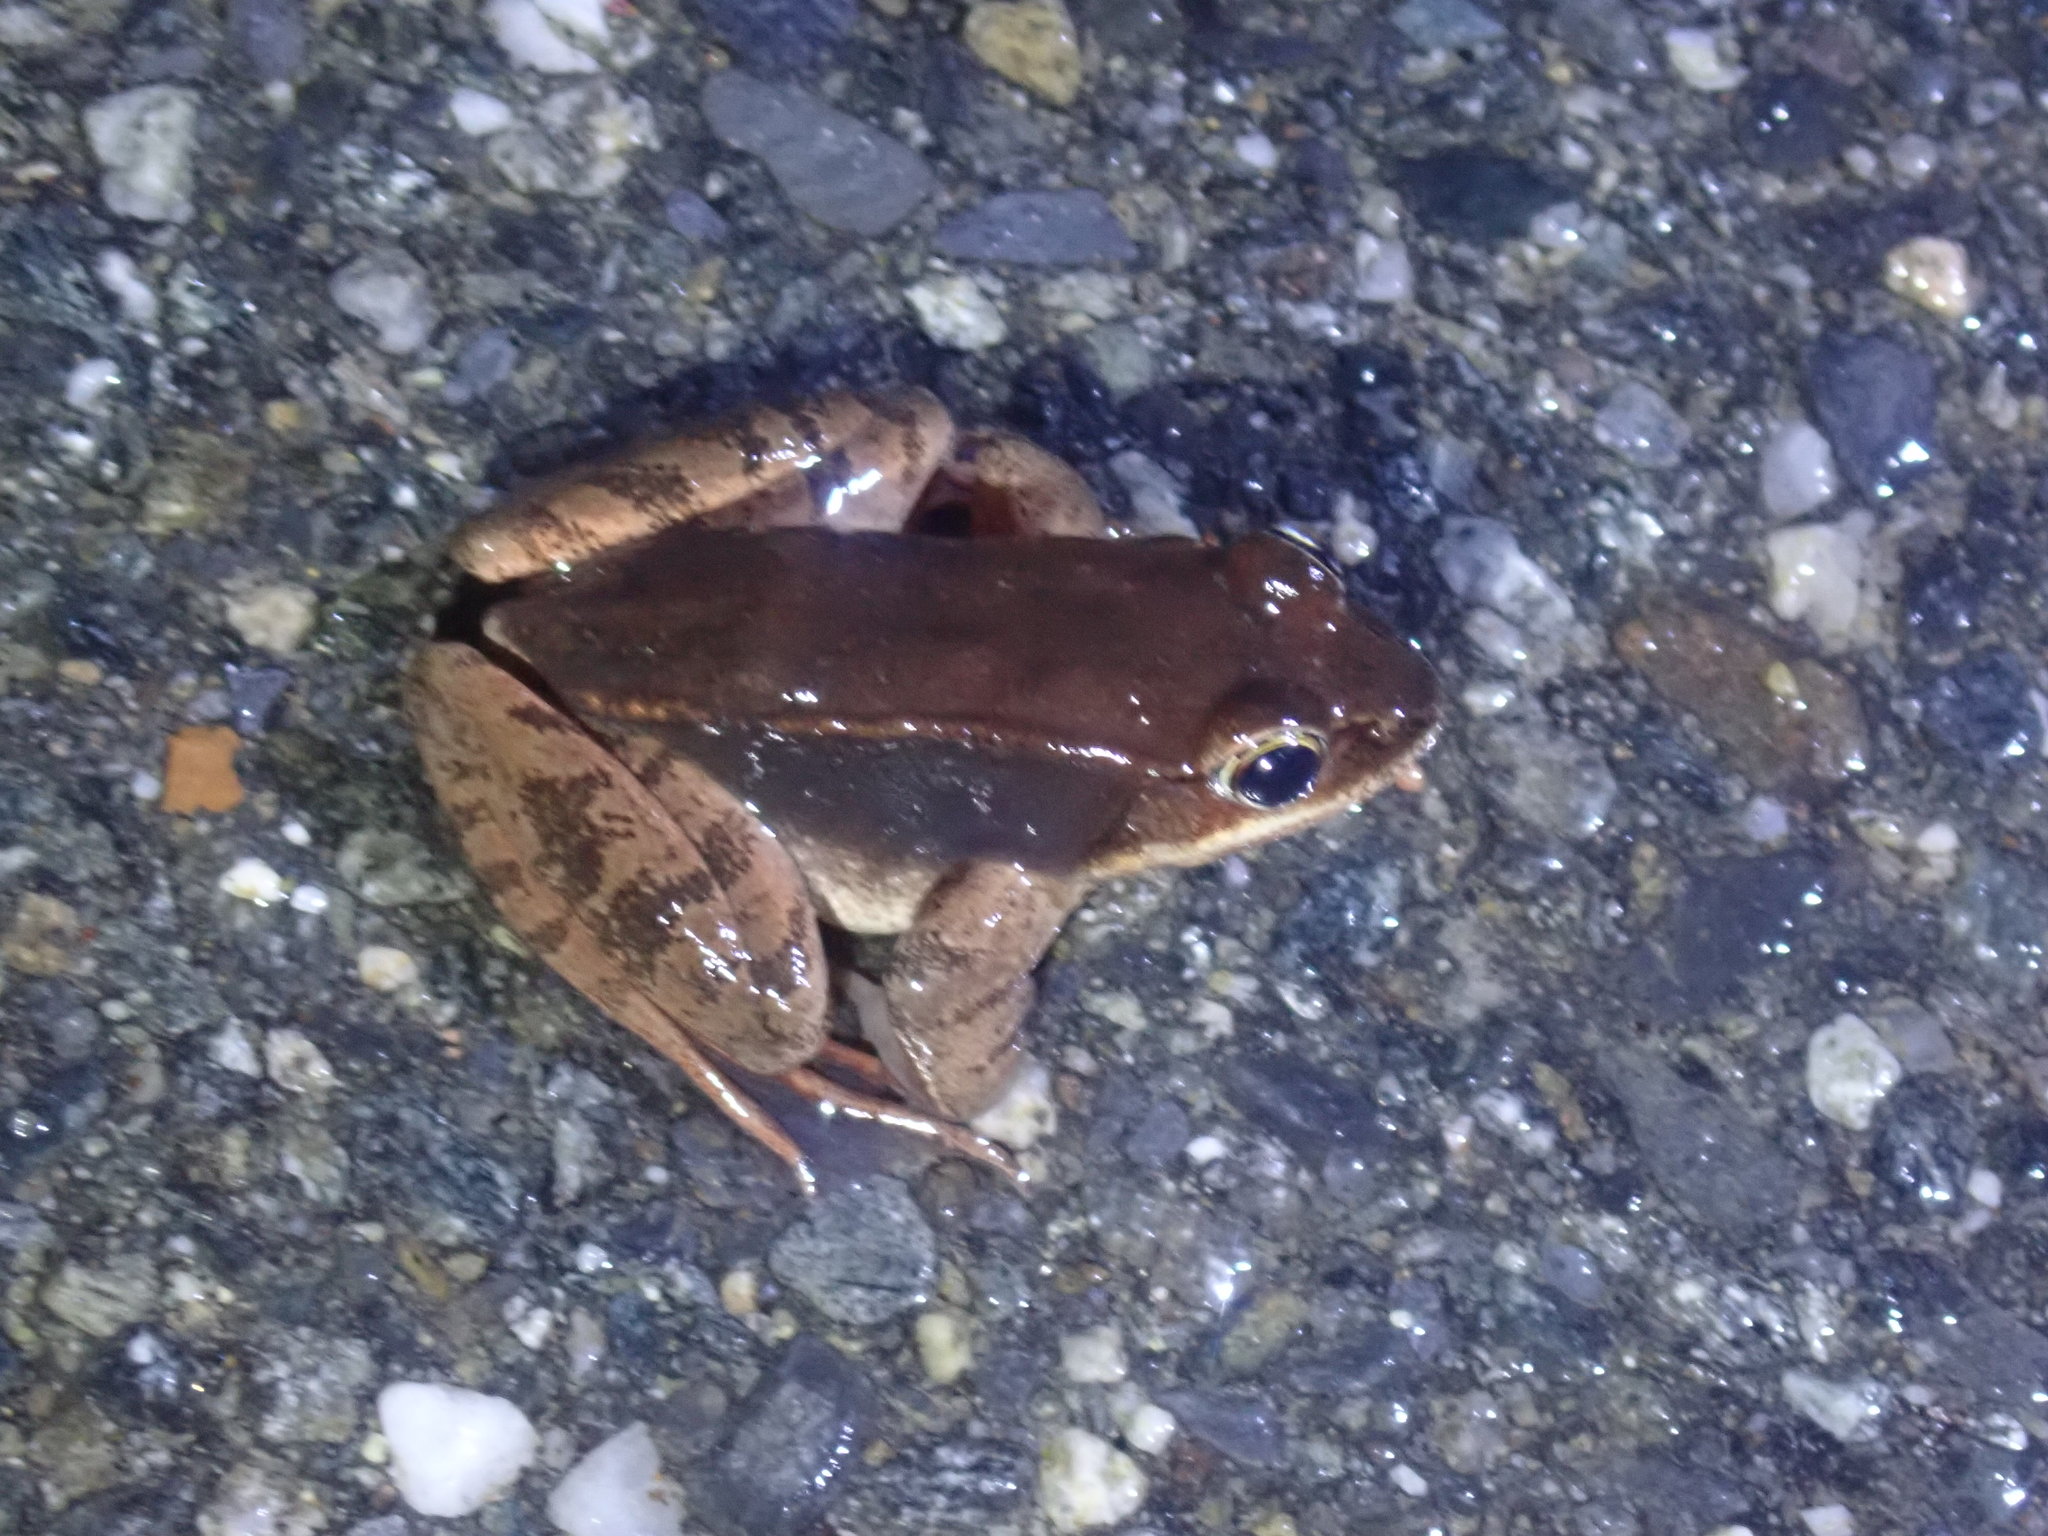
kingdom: Animalia
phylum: Chordata
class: Amphibia
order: Anura
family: Ranidae
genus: Lithobates
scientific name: Lithobates sylvaticus
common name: Wood frog
